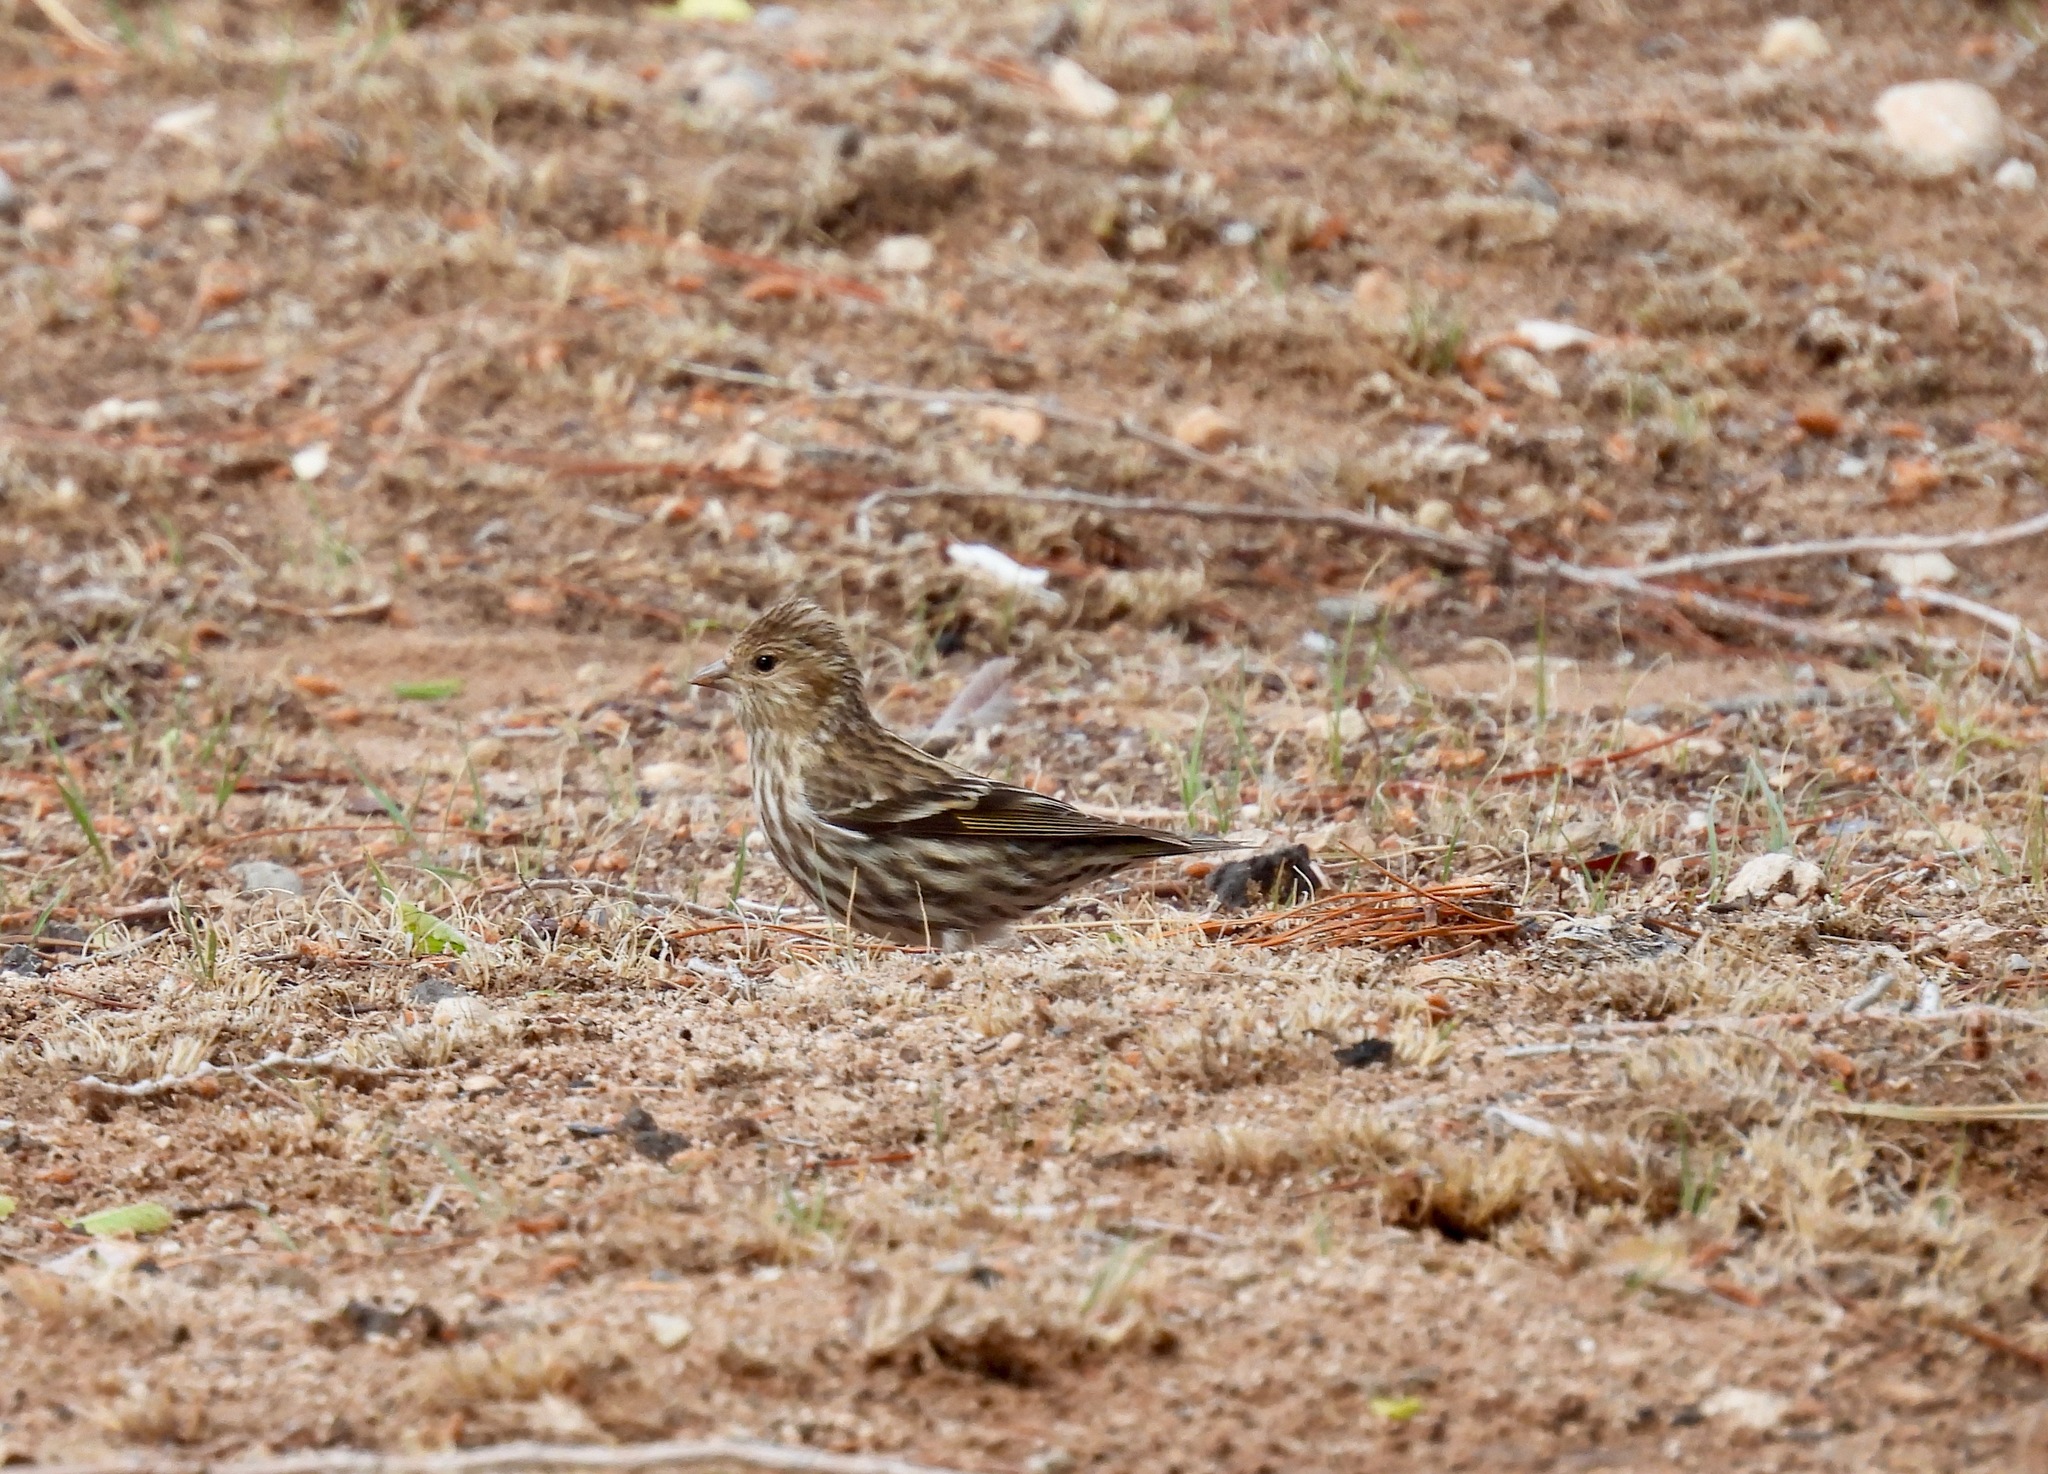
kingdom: Animalia
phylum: Chordata
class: Aves
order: Passeriformes
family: Fringillidae
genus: Spinus
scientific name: Spinus pinus
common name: Pine siskin
